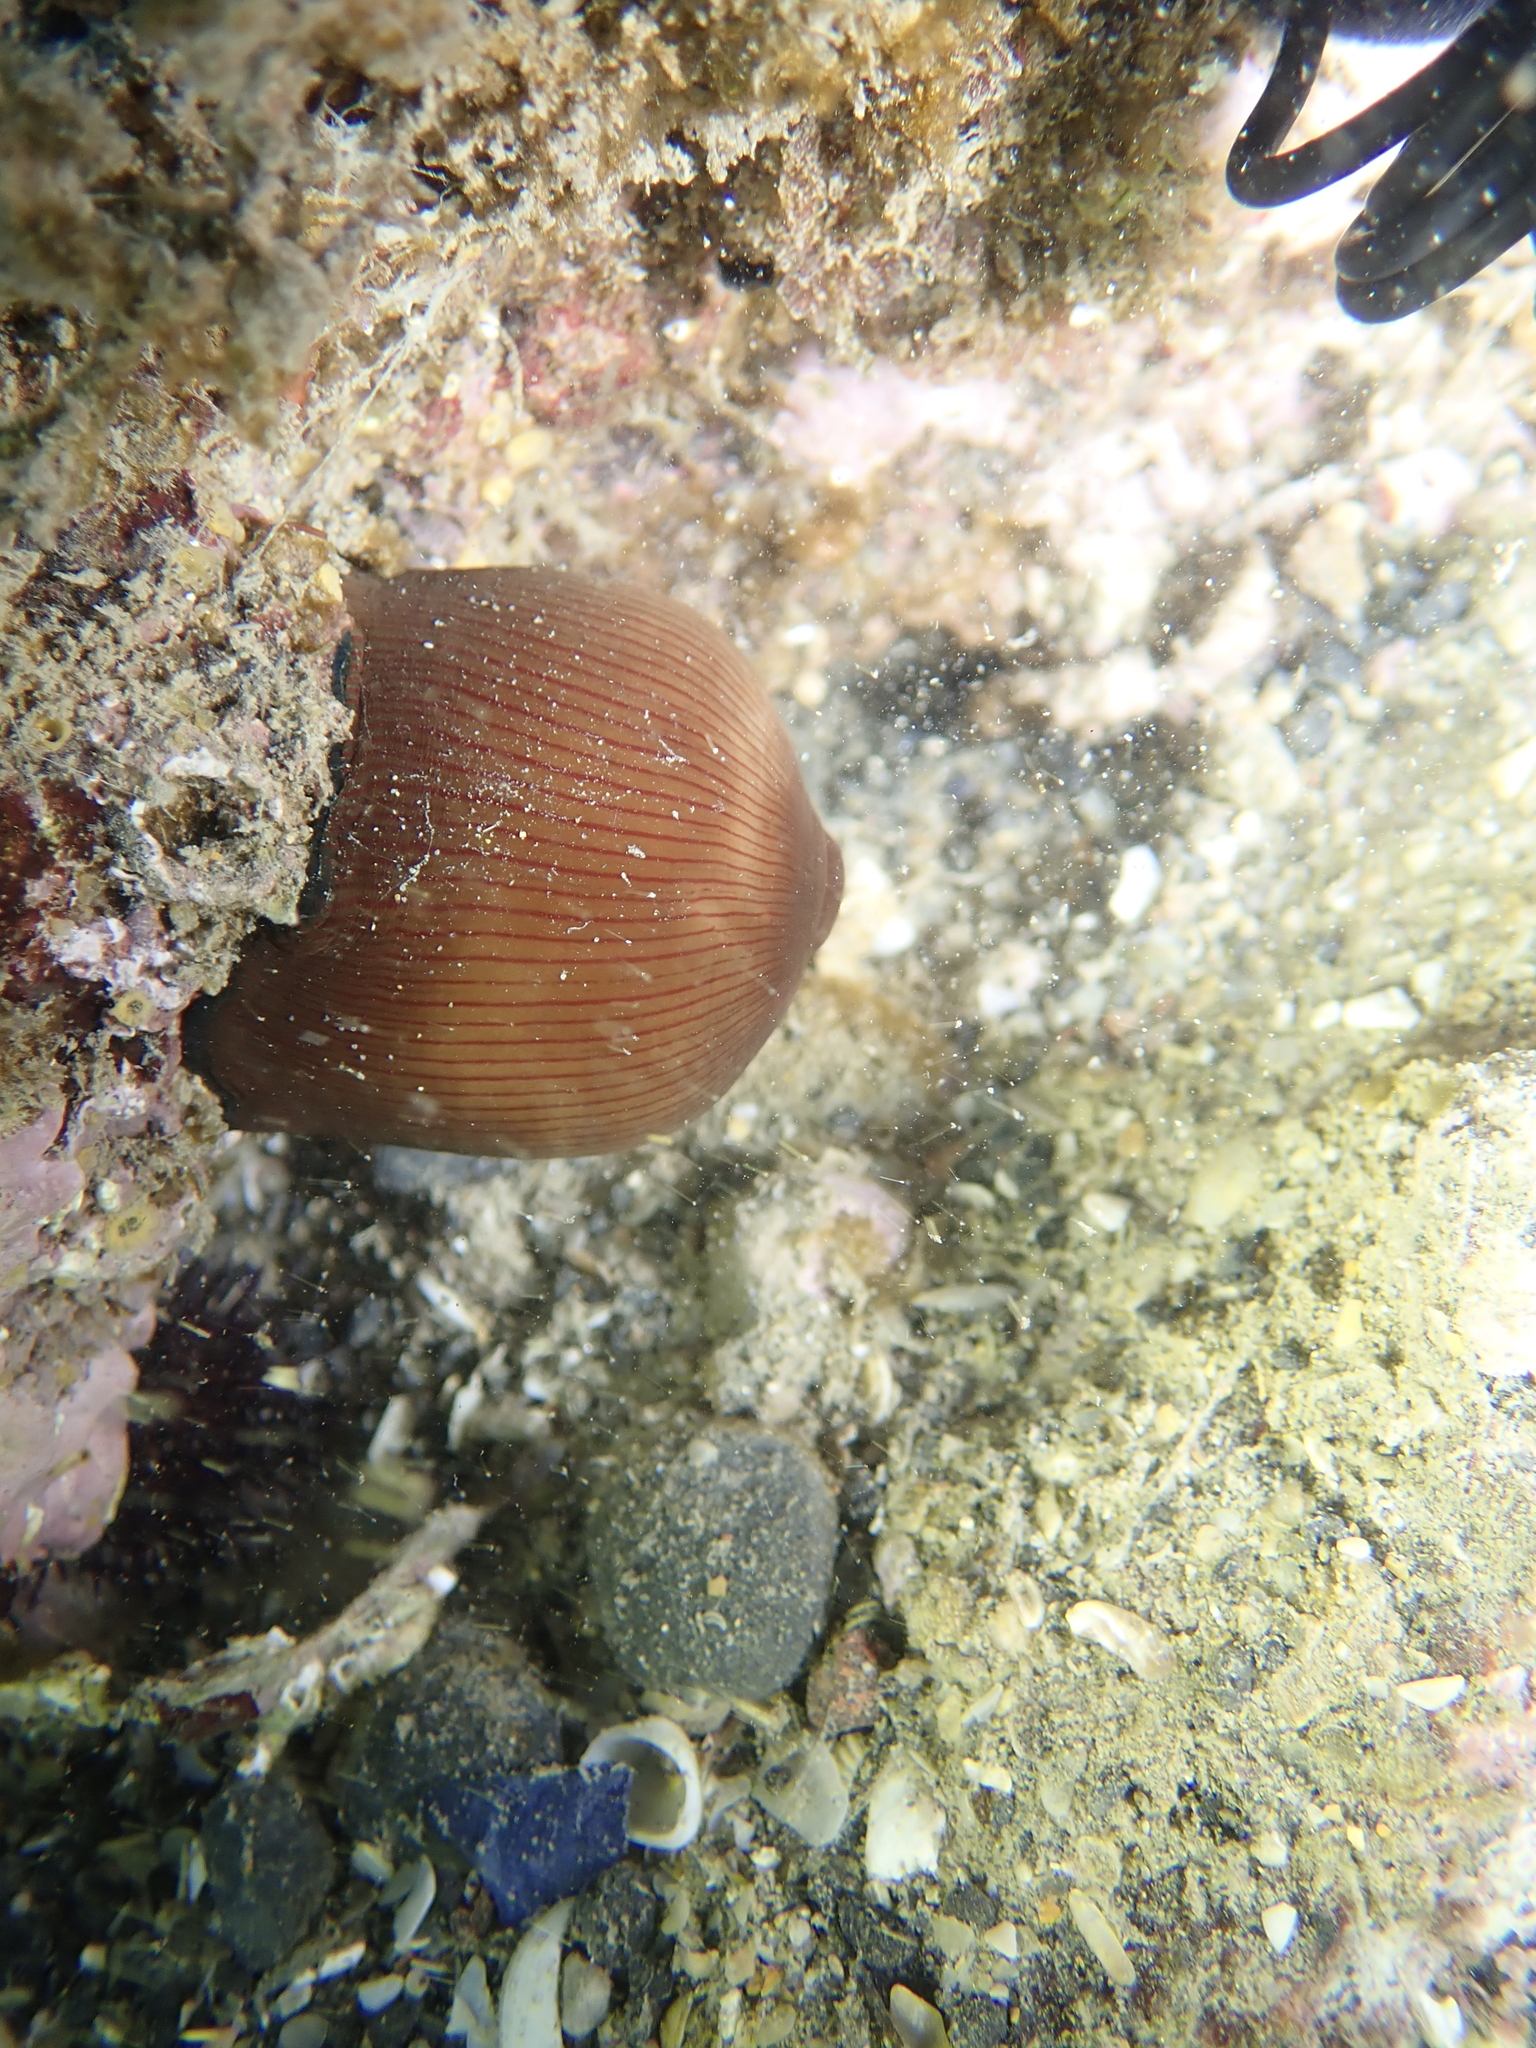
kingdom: Animalia
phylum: Cnidaria
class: Anthozoa
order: Actiniaria
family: Actiniidae
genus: Actinia
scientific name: Actinia striata
